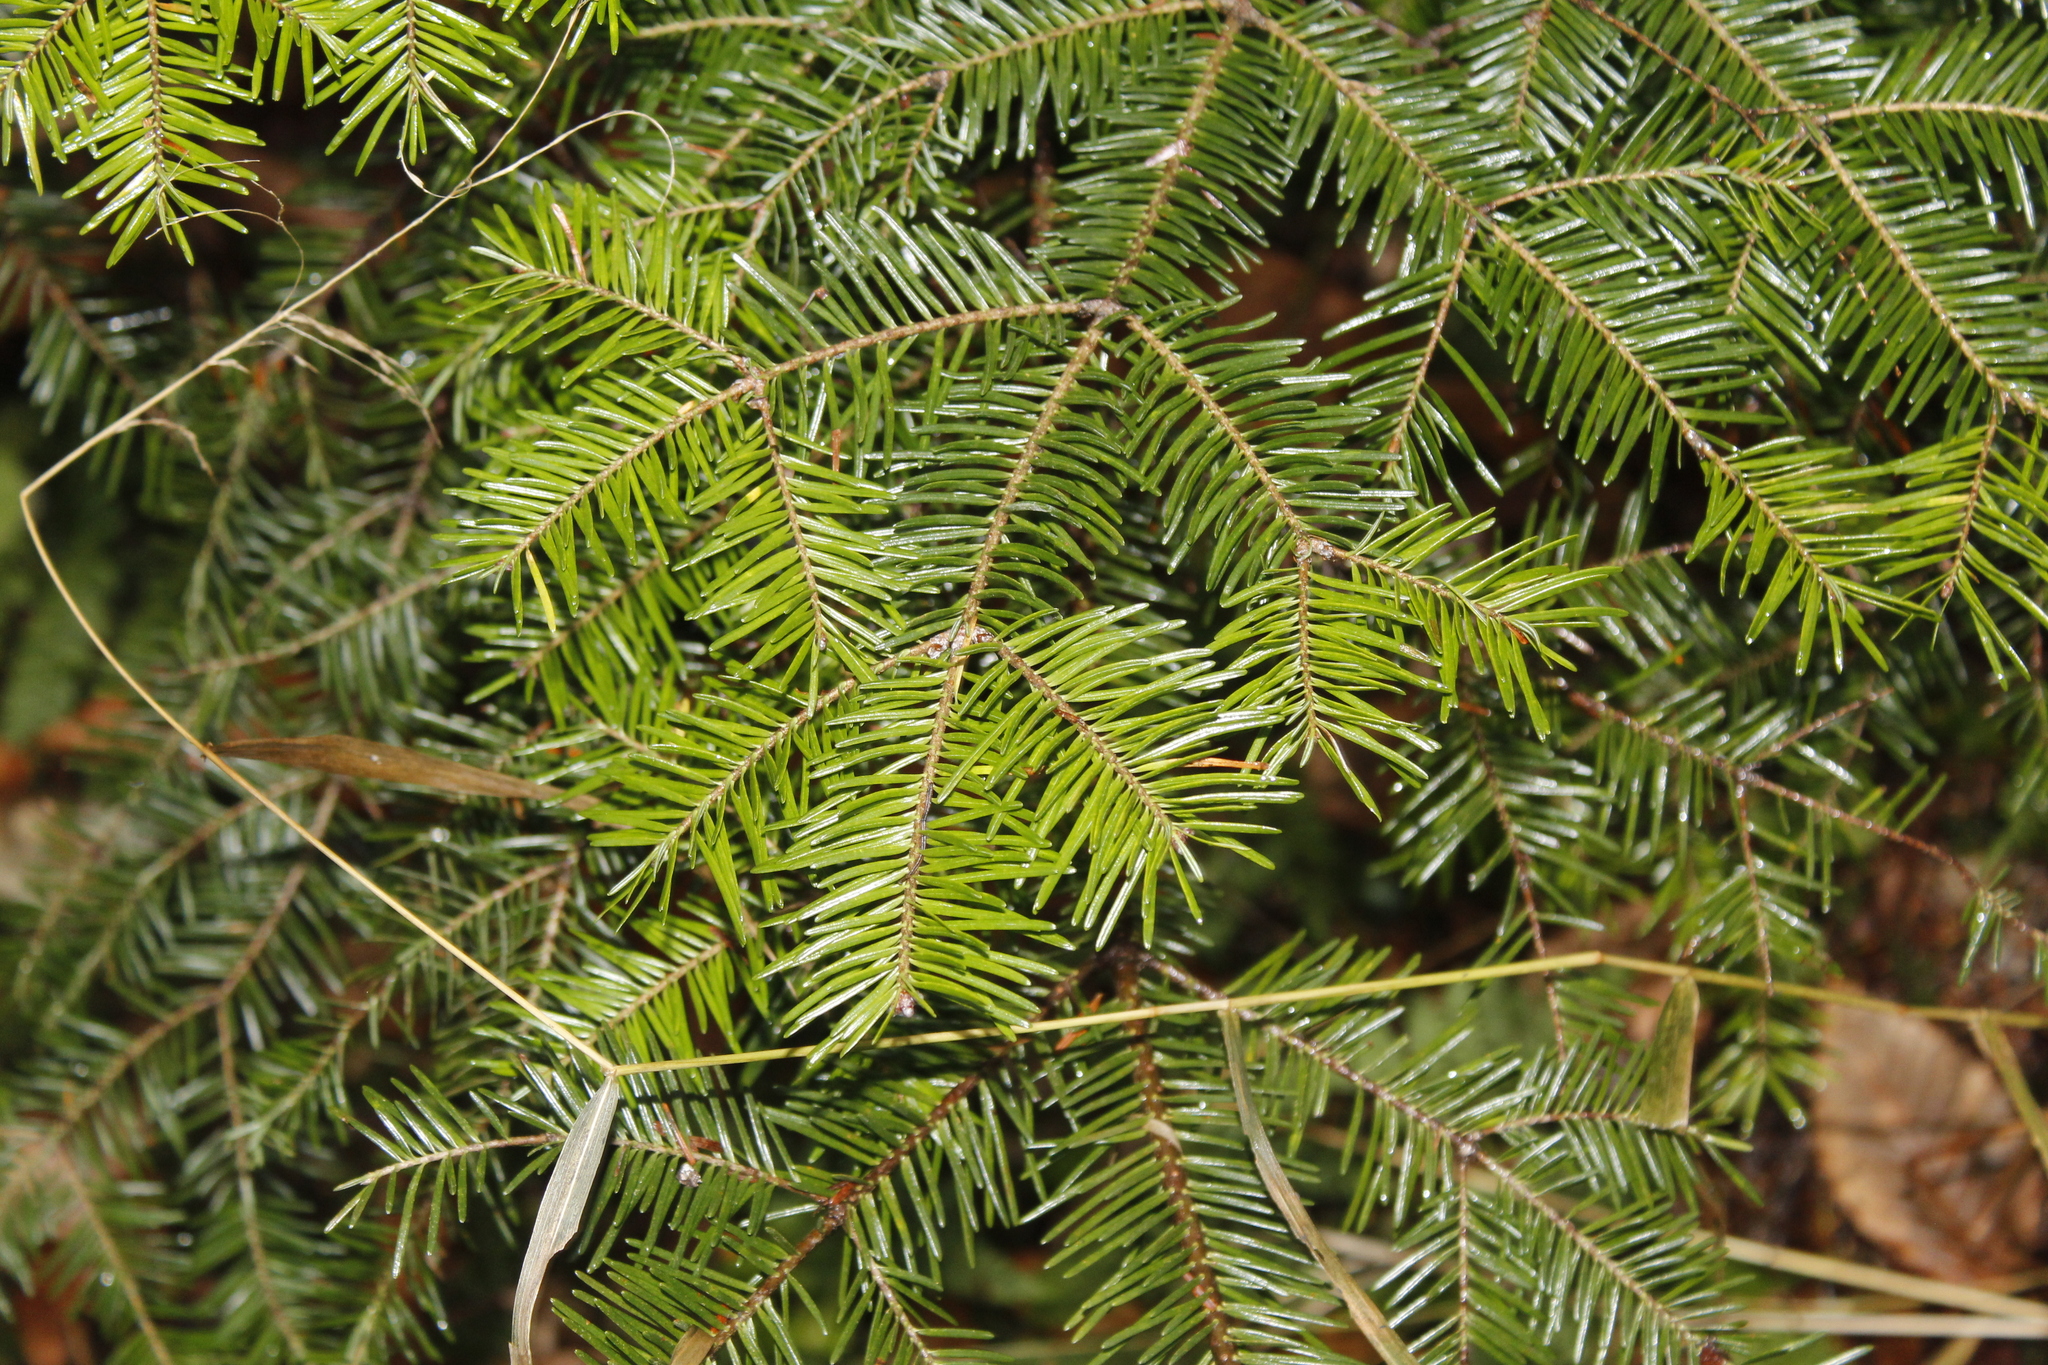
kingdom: Plantae
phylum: Tracheophyta
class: Pinopsida
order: Pinales
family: Pinaceae
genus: Abies
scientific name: Abies balsamea
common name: Balsam fir
